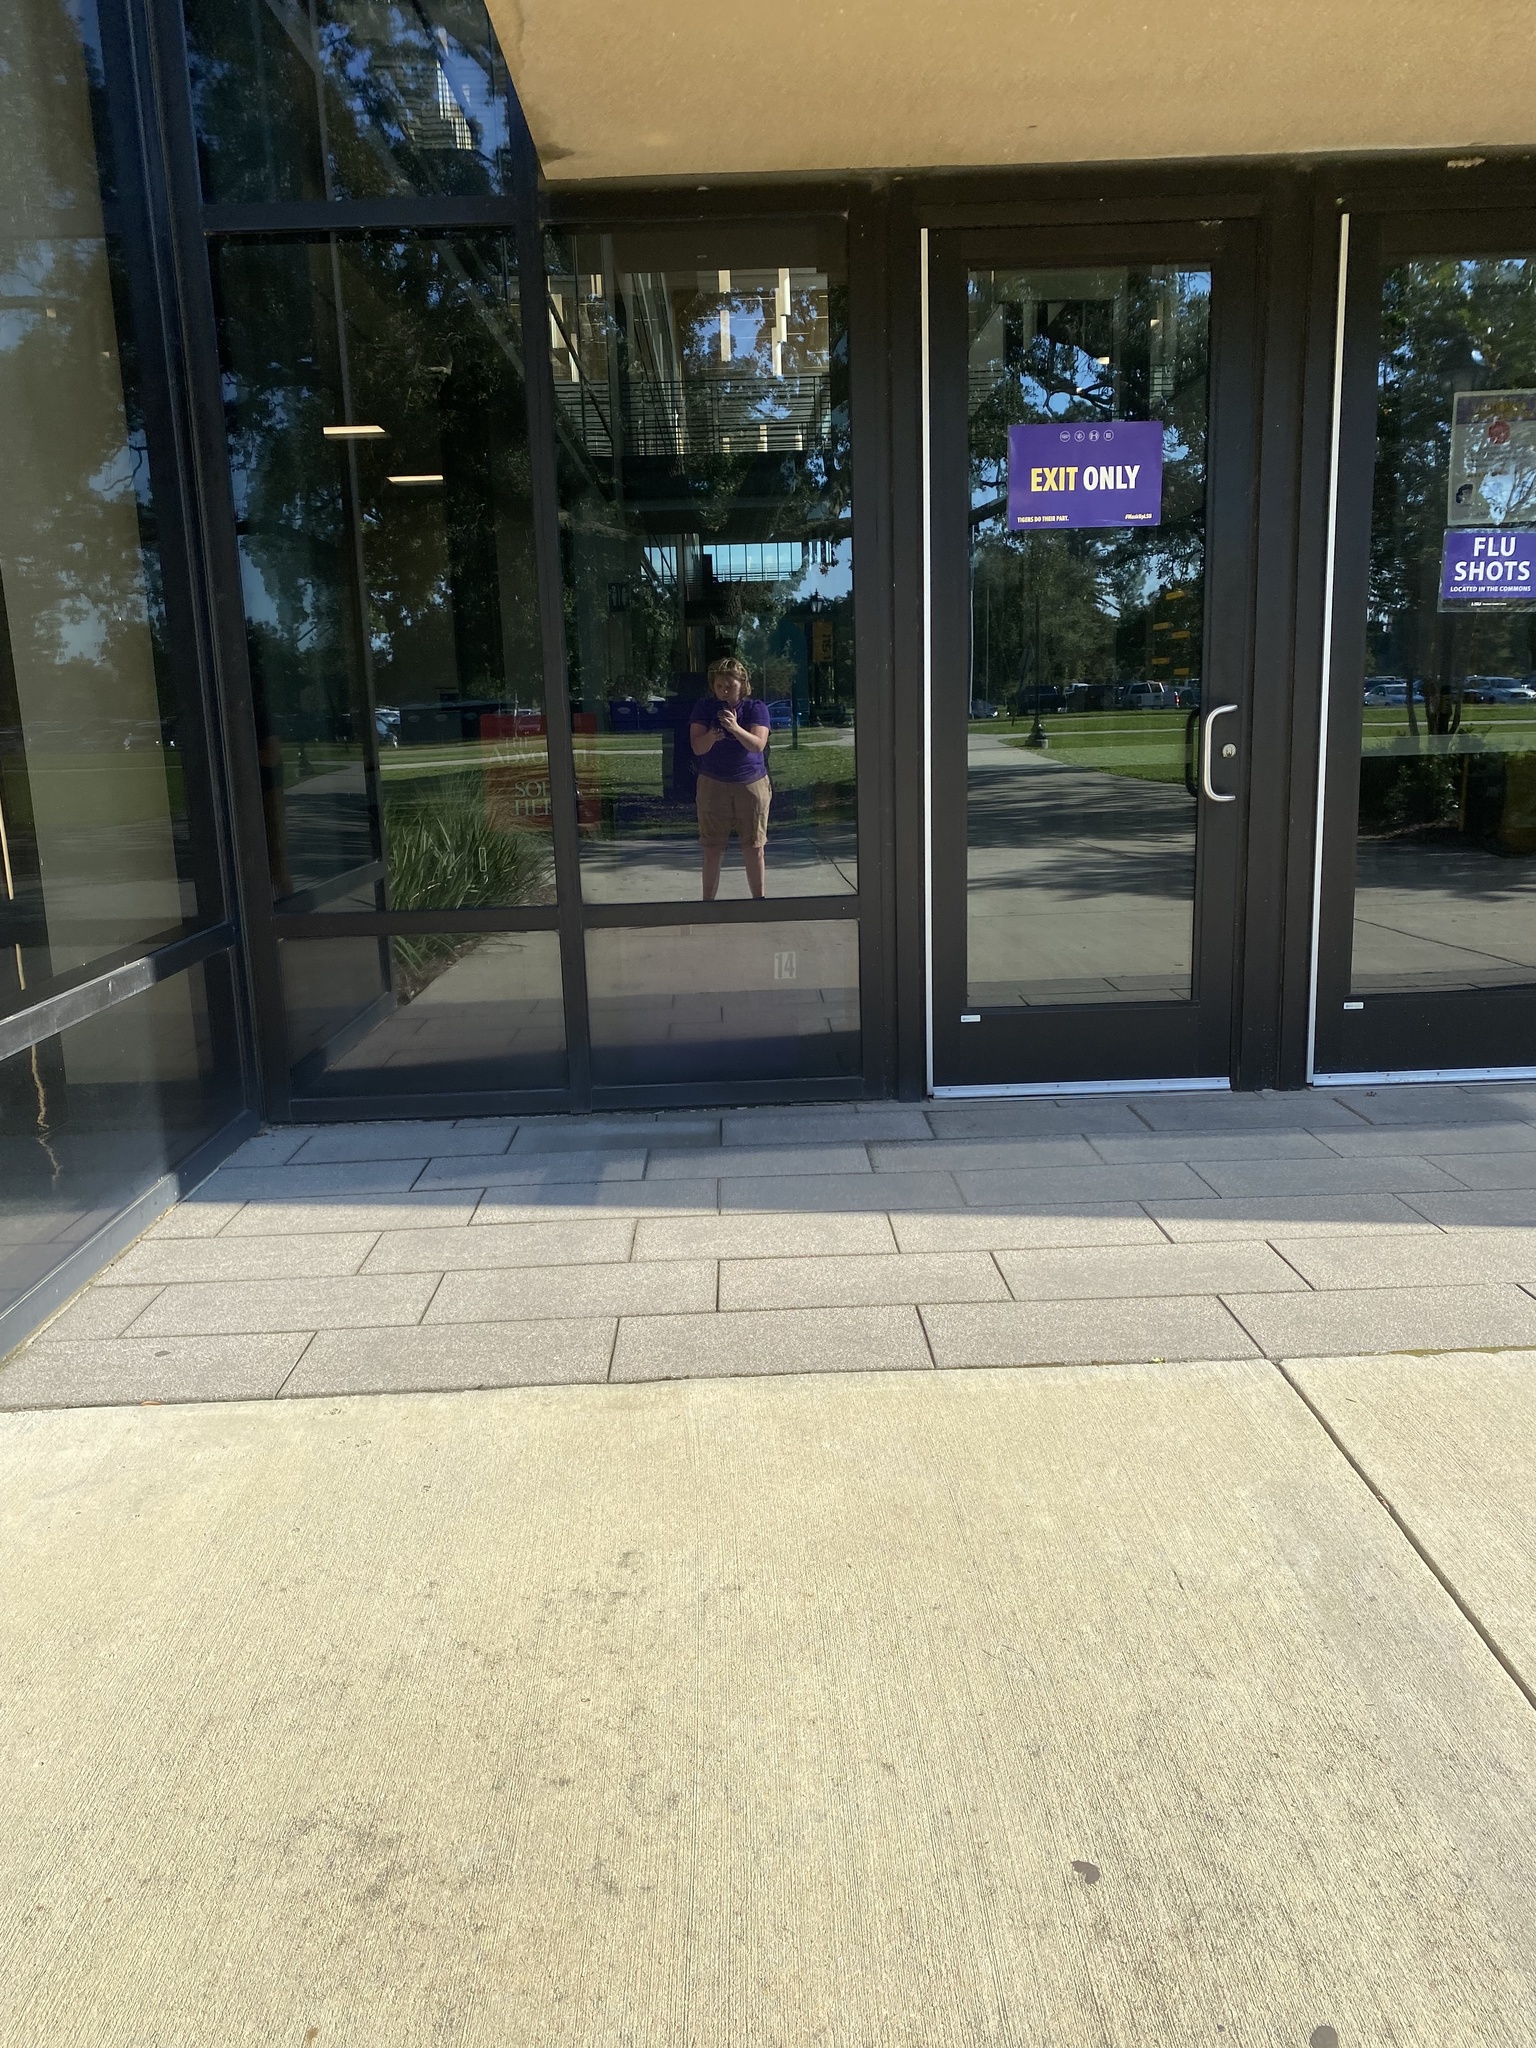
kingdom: Animalia
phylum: Chordata
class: Aves
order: Passeriformes
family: Parulidae
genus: Geothlypis
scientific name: Geothlypis trichas
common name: Common yellowthroat
